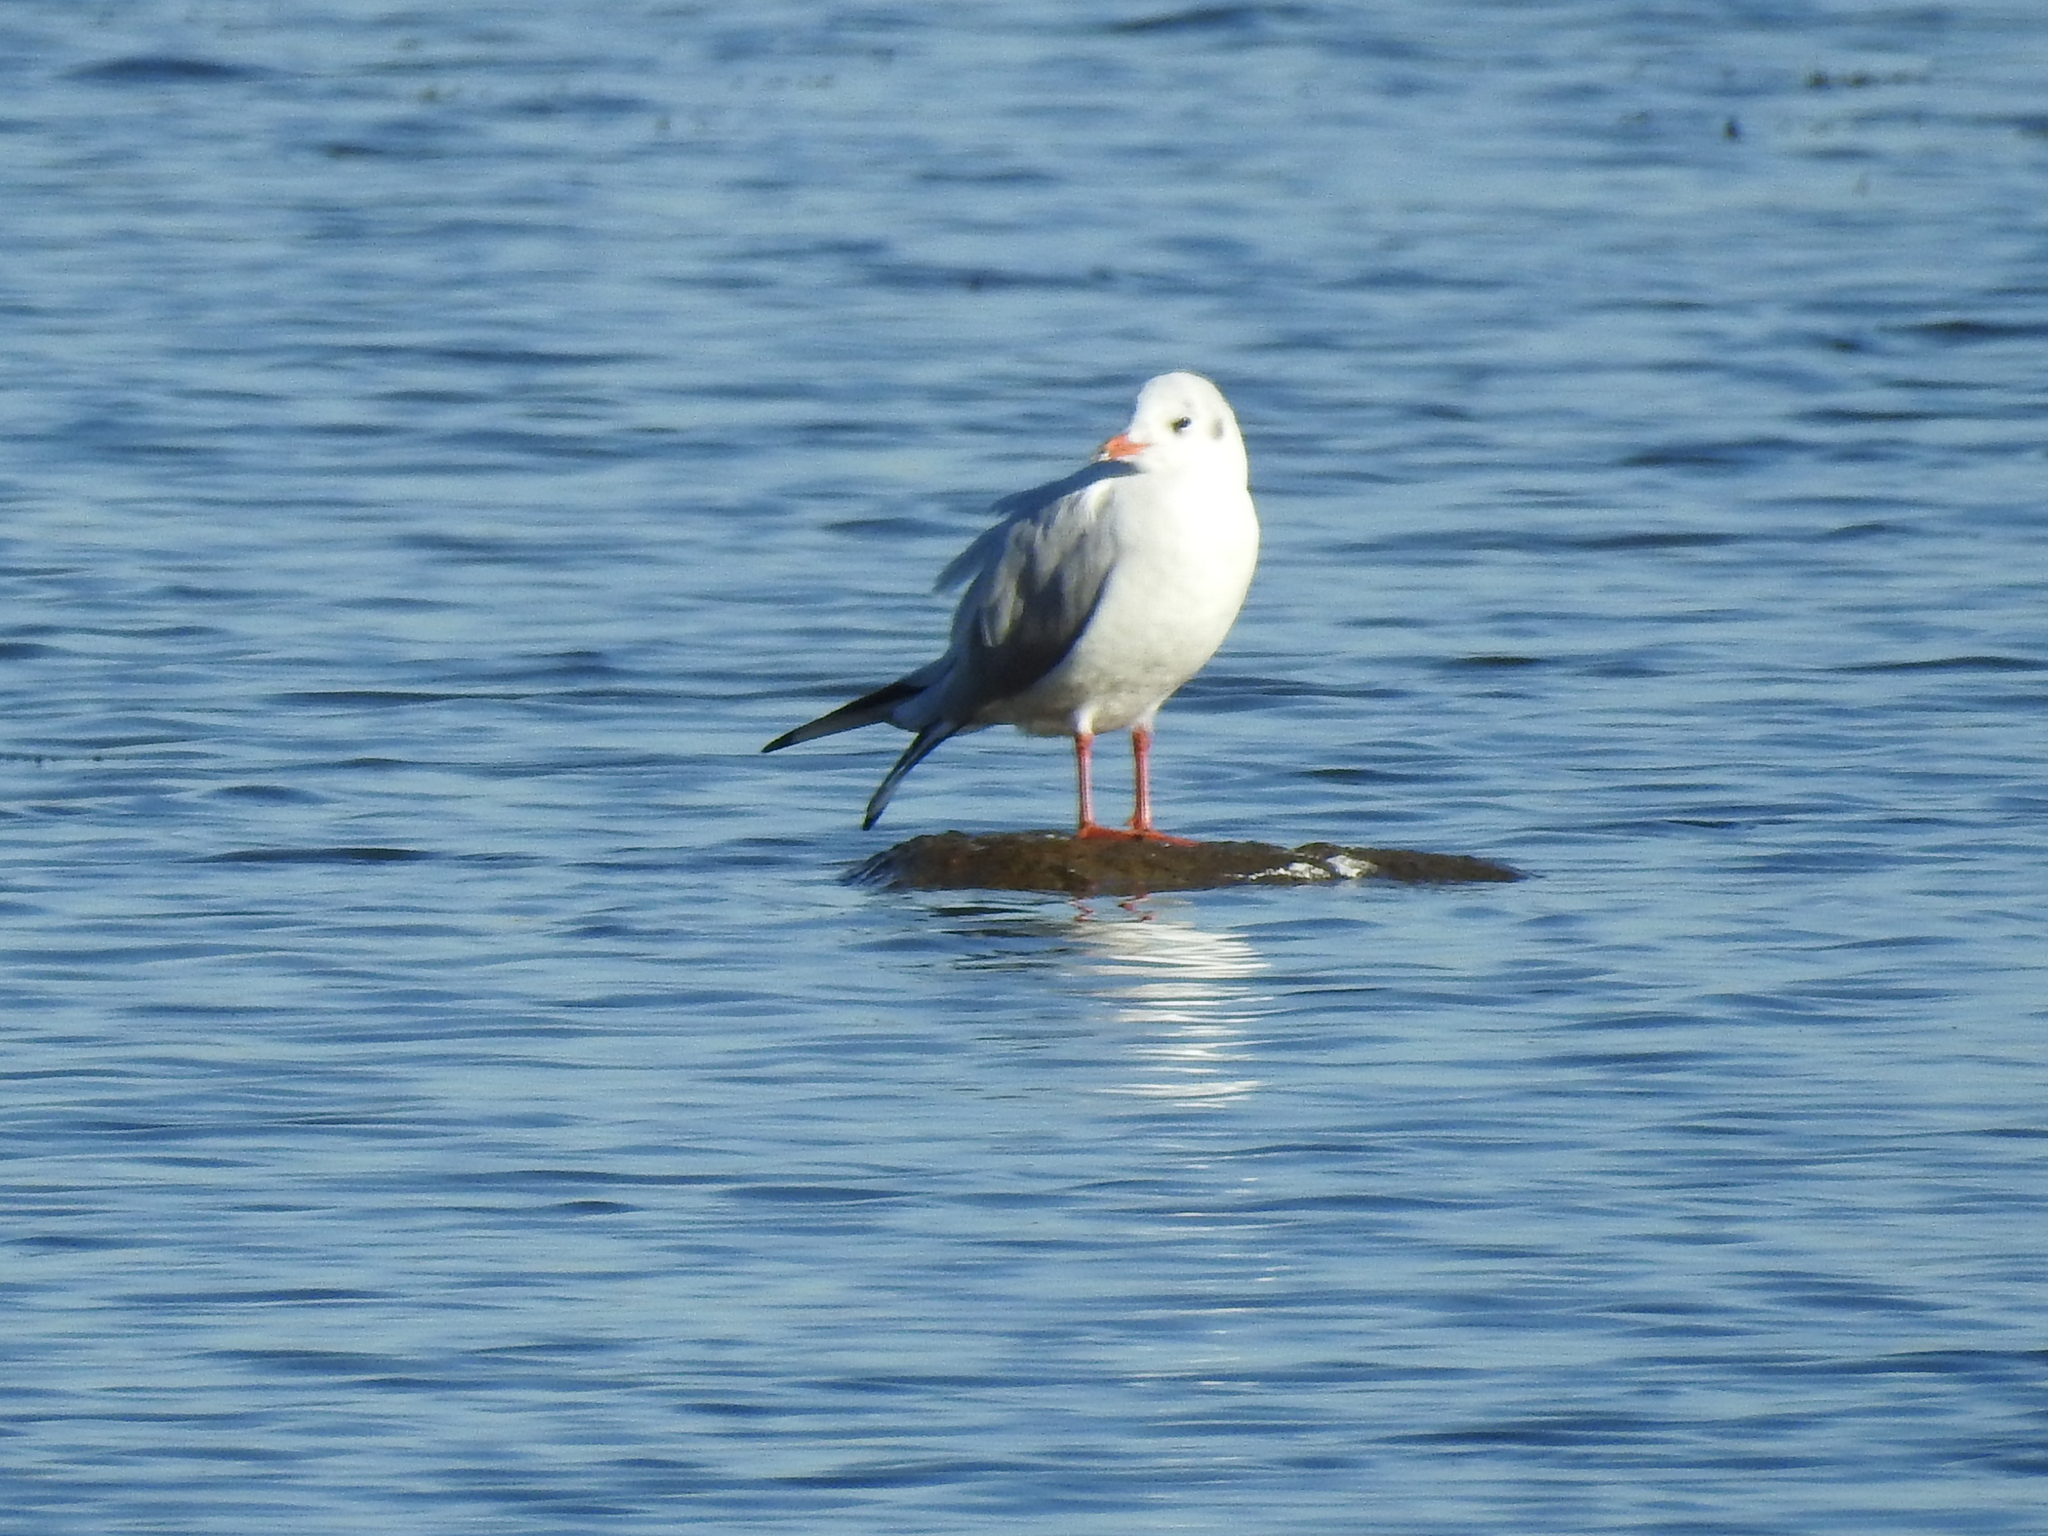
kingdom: Animalia
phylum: Chordata
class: Aves
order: Charadriiformes
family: Laridae
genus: Chroicocephalus
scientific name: Chroicocephalus ridibundus
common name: Black-headed gull
